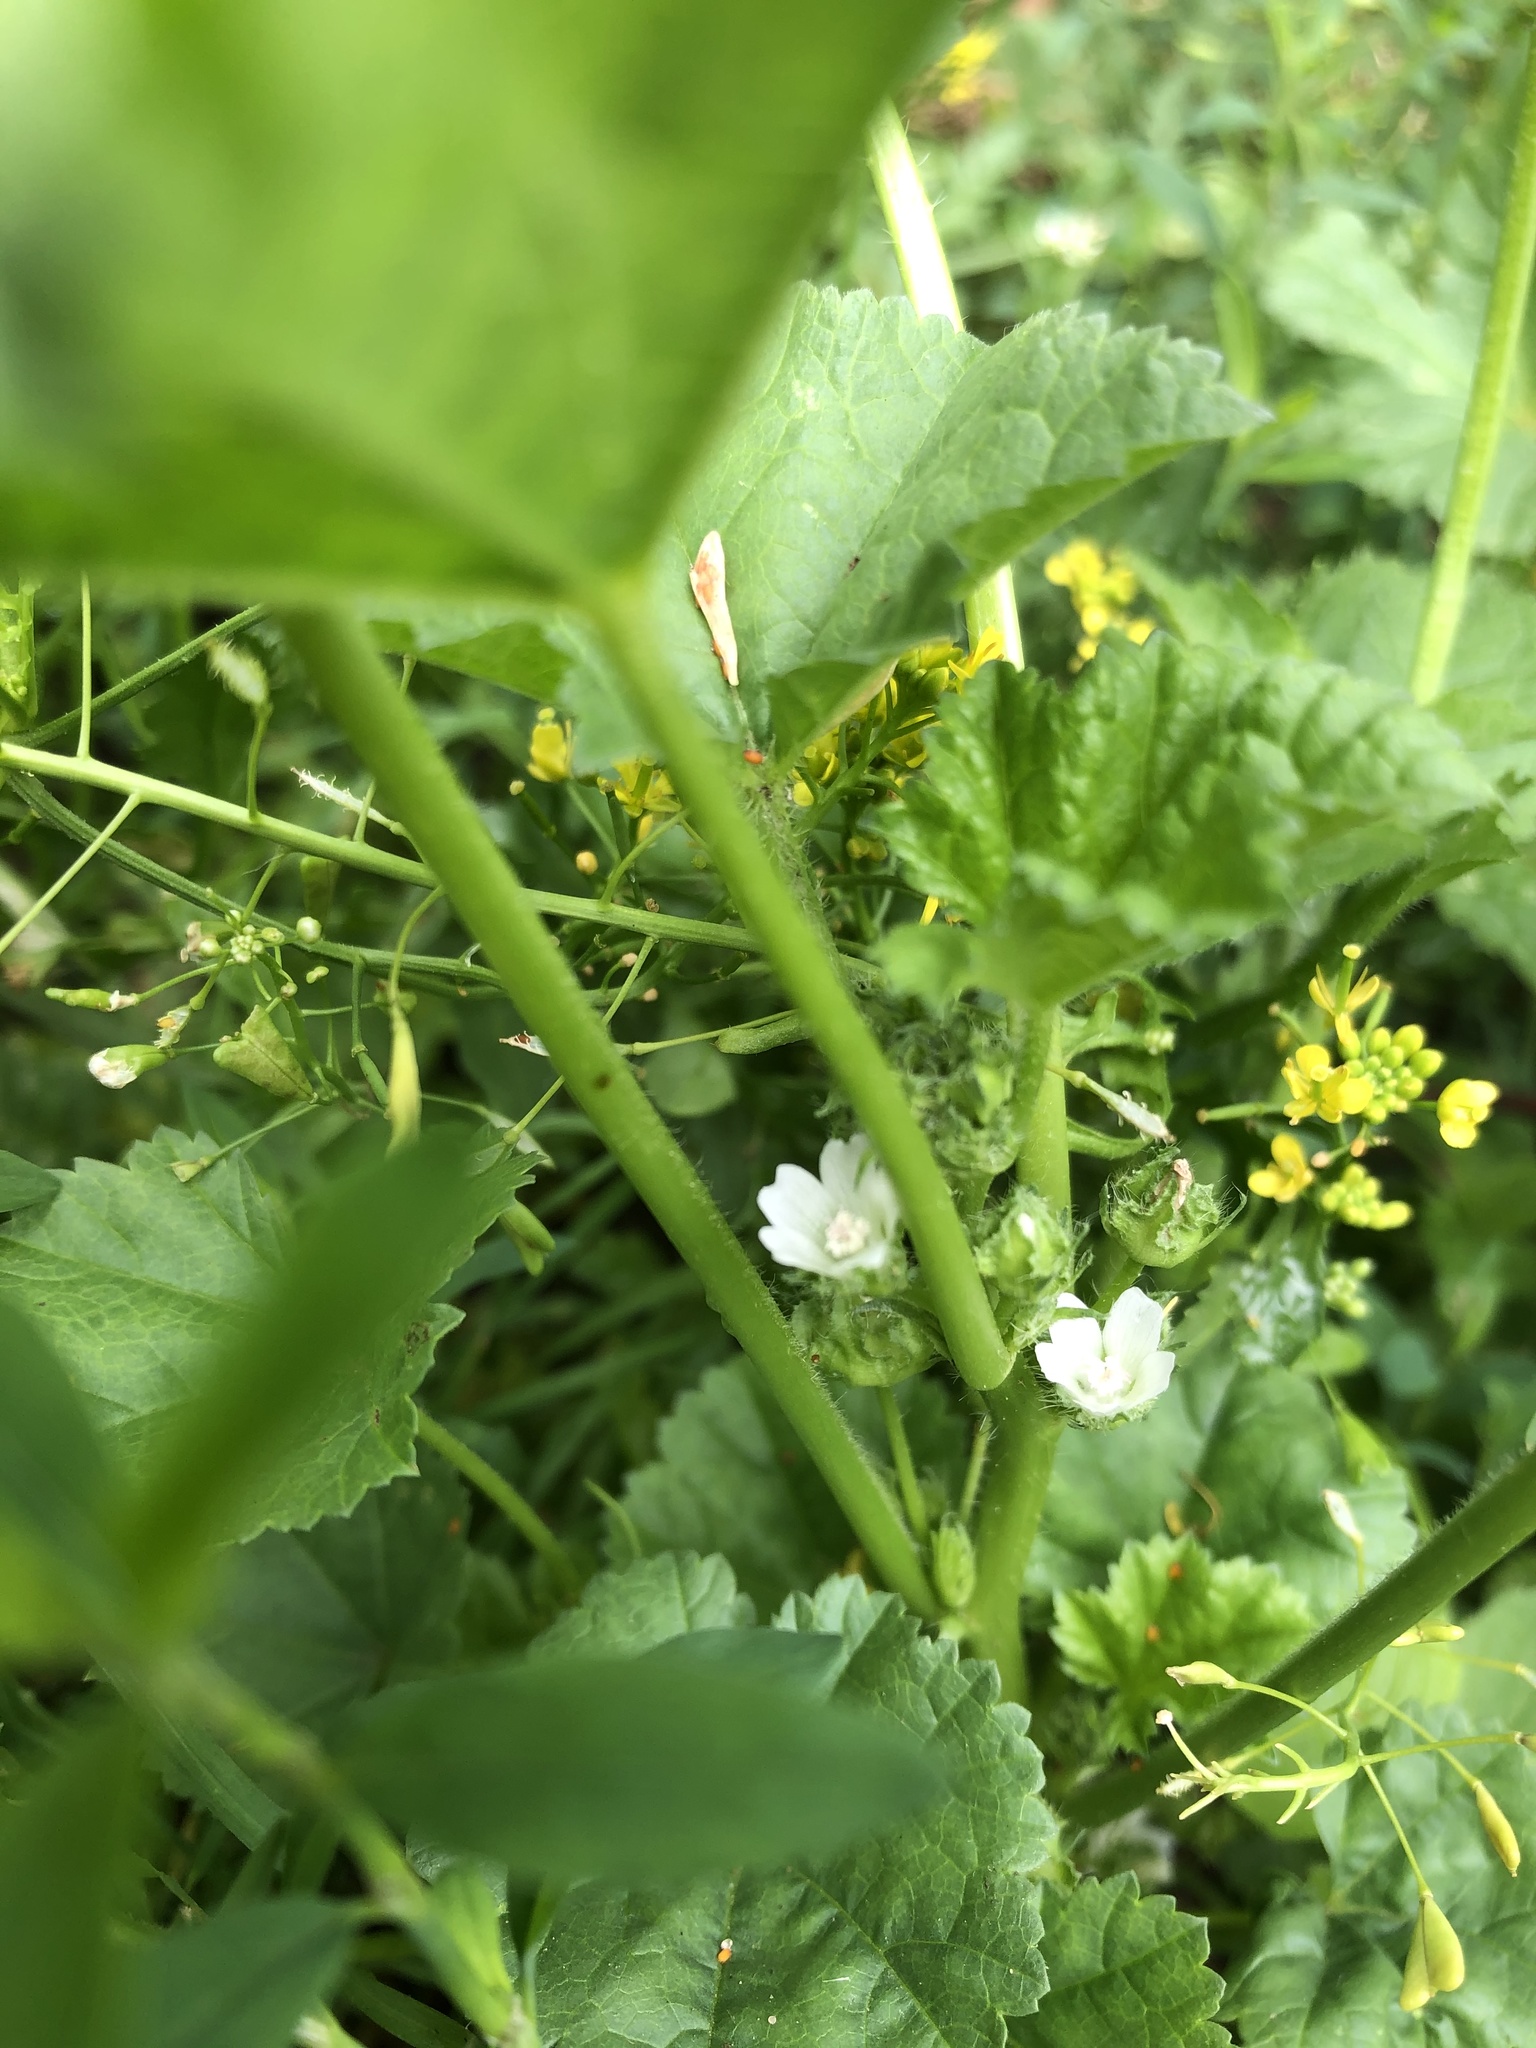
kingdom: Plantae
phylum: Tracheophyta
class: Magnoliopsida
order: Malvales
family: Malvaceae
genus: Malva
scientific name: Malva pusilla
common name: Small mallow
